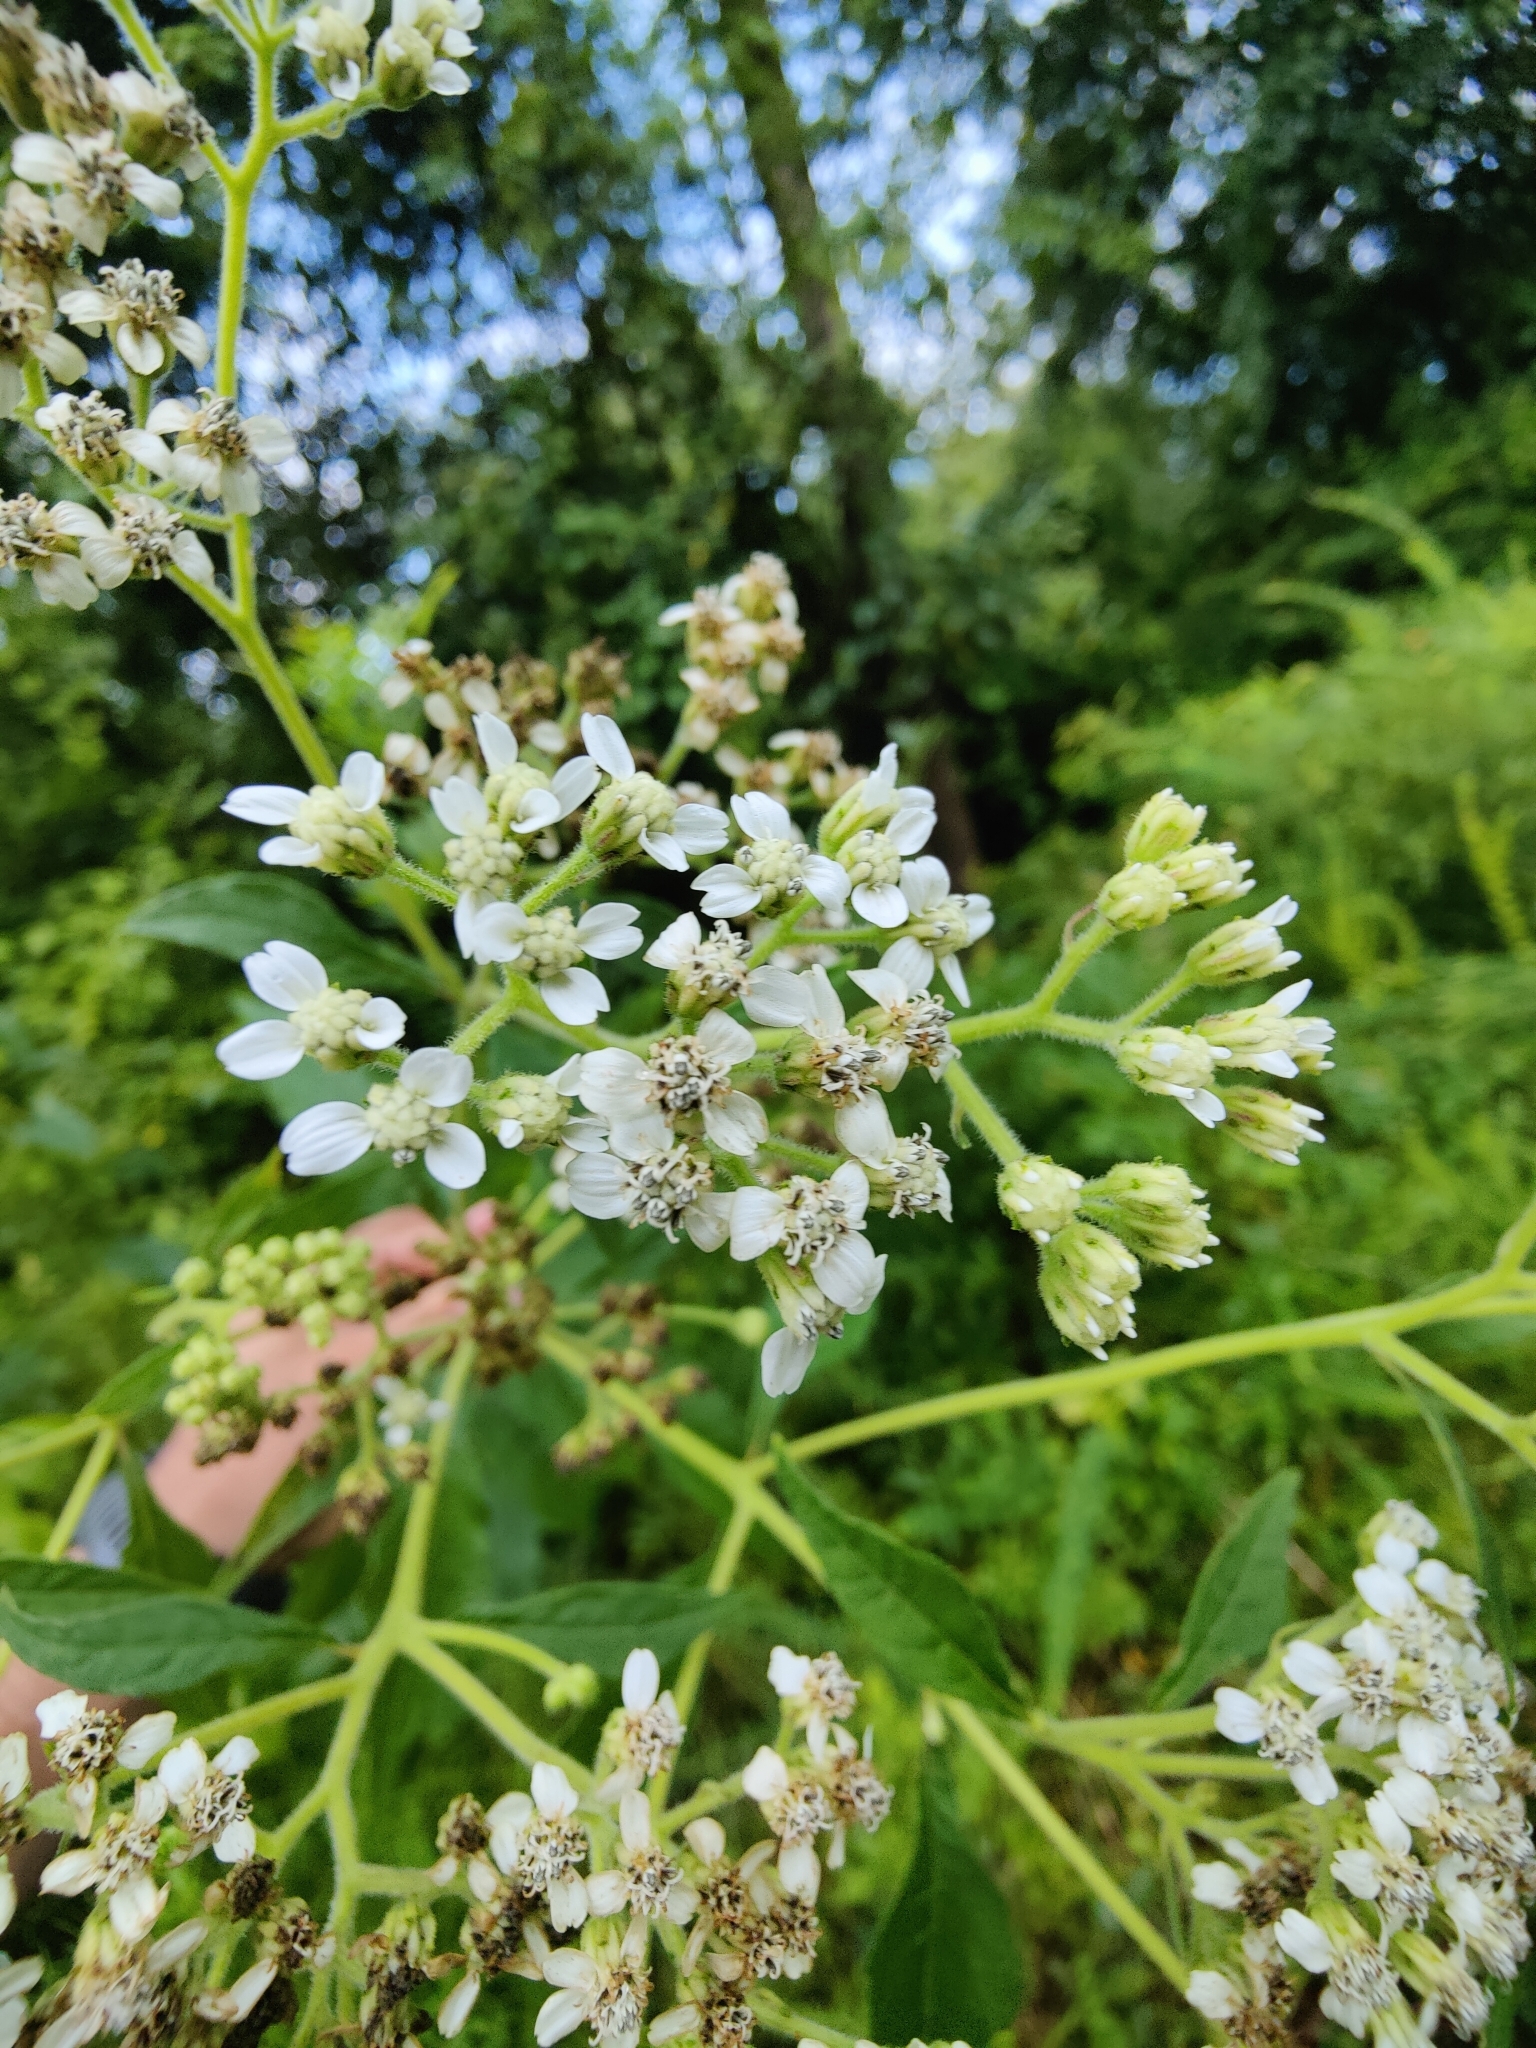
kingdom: Plantae
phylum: Tracheophyta
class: Magnoliopsida
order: Asterales
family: Asteraceae
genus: Verbesina
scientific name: Verbesina virginica
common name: Frostweed
